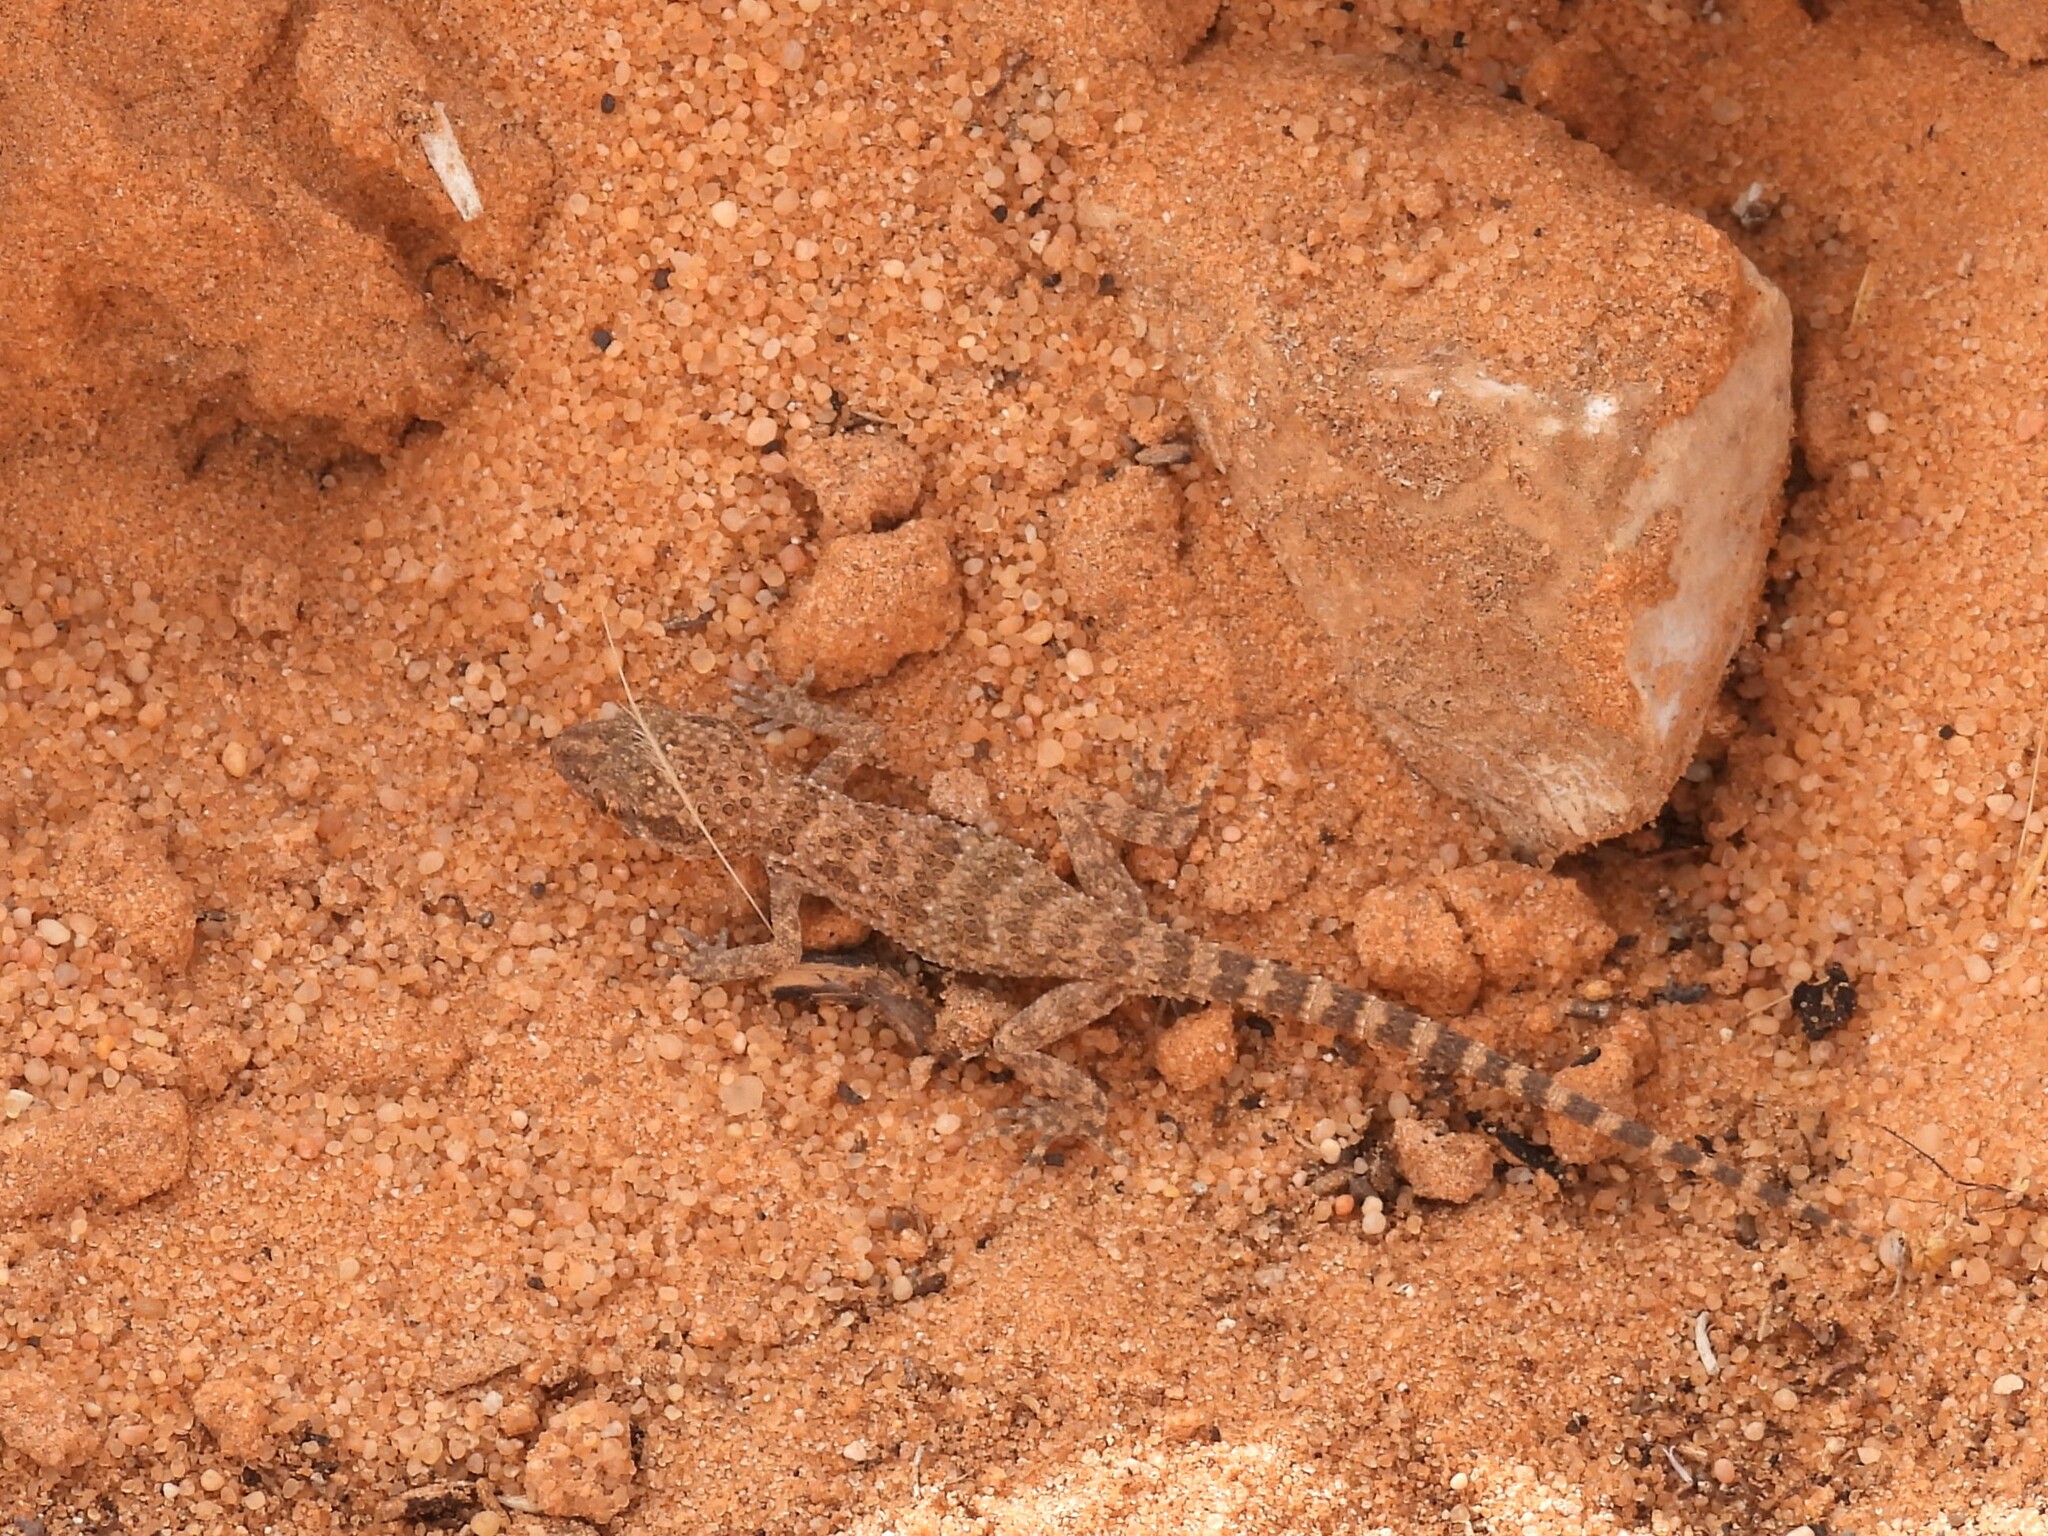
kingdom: Animalia
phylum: Chordata
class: Squamata
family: Gekkonidae
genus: Bunopus
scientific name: Bunopus tuberculatus
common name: Southern tuberculated gecko
